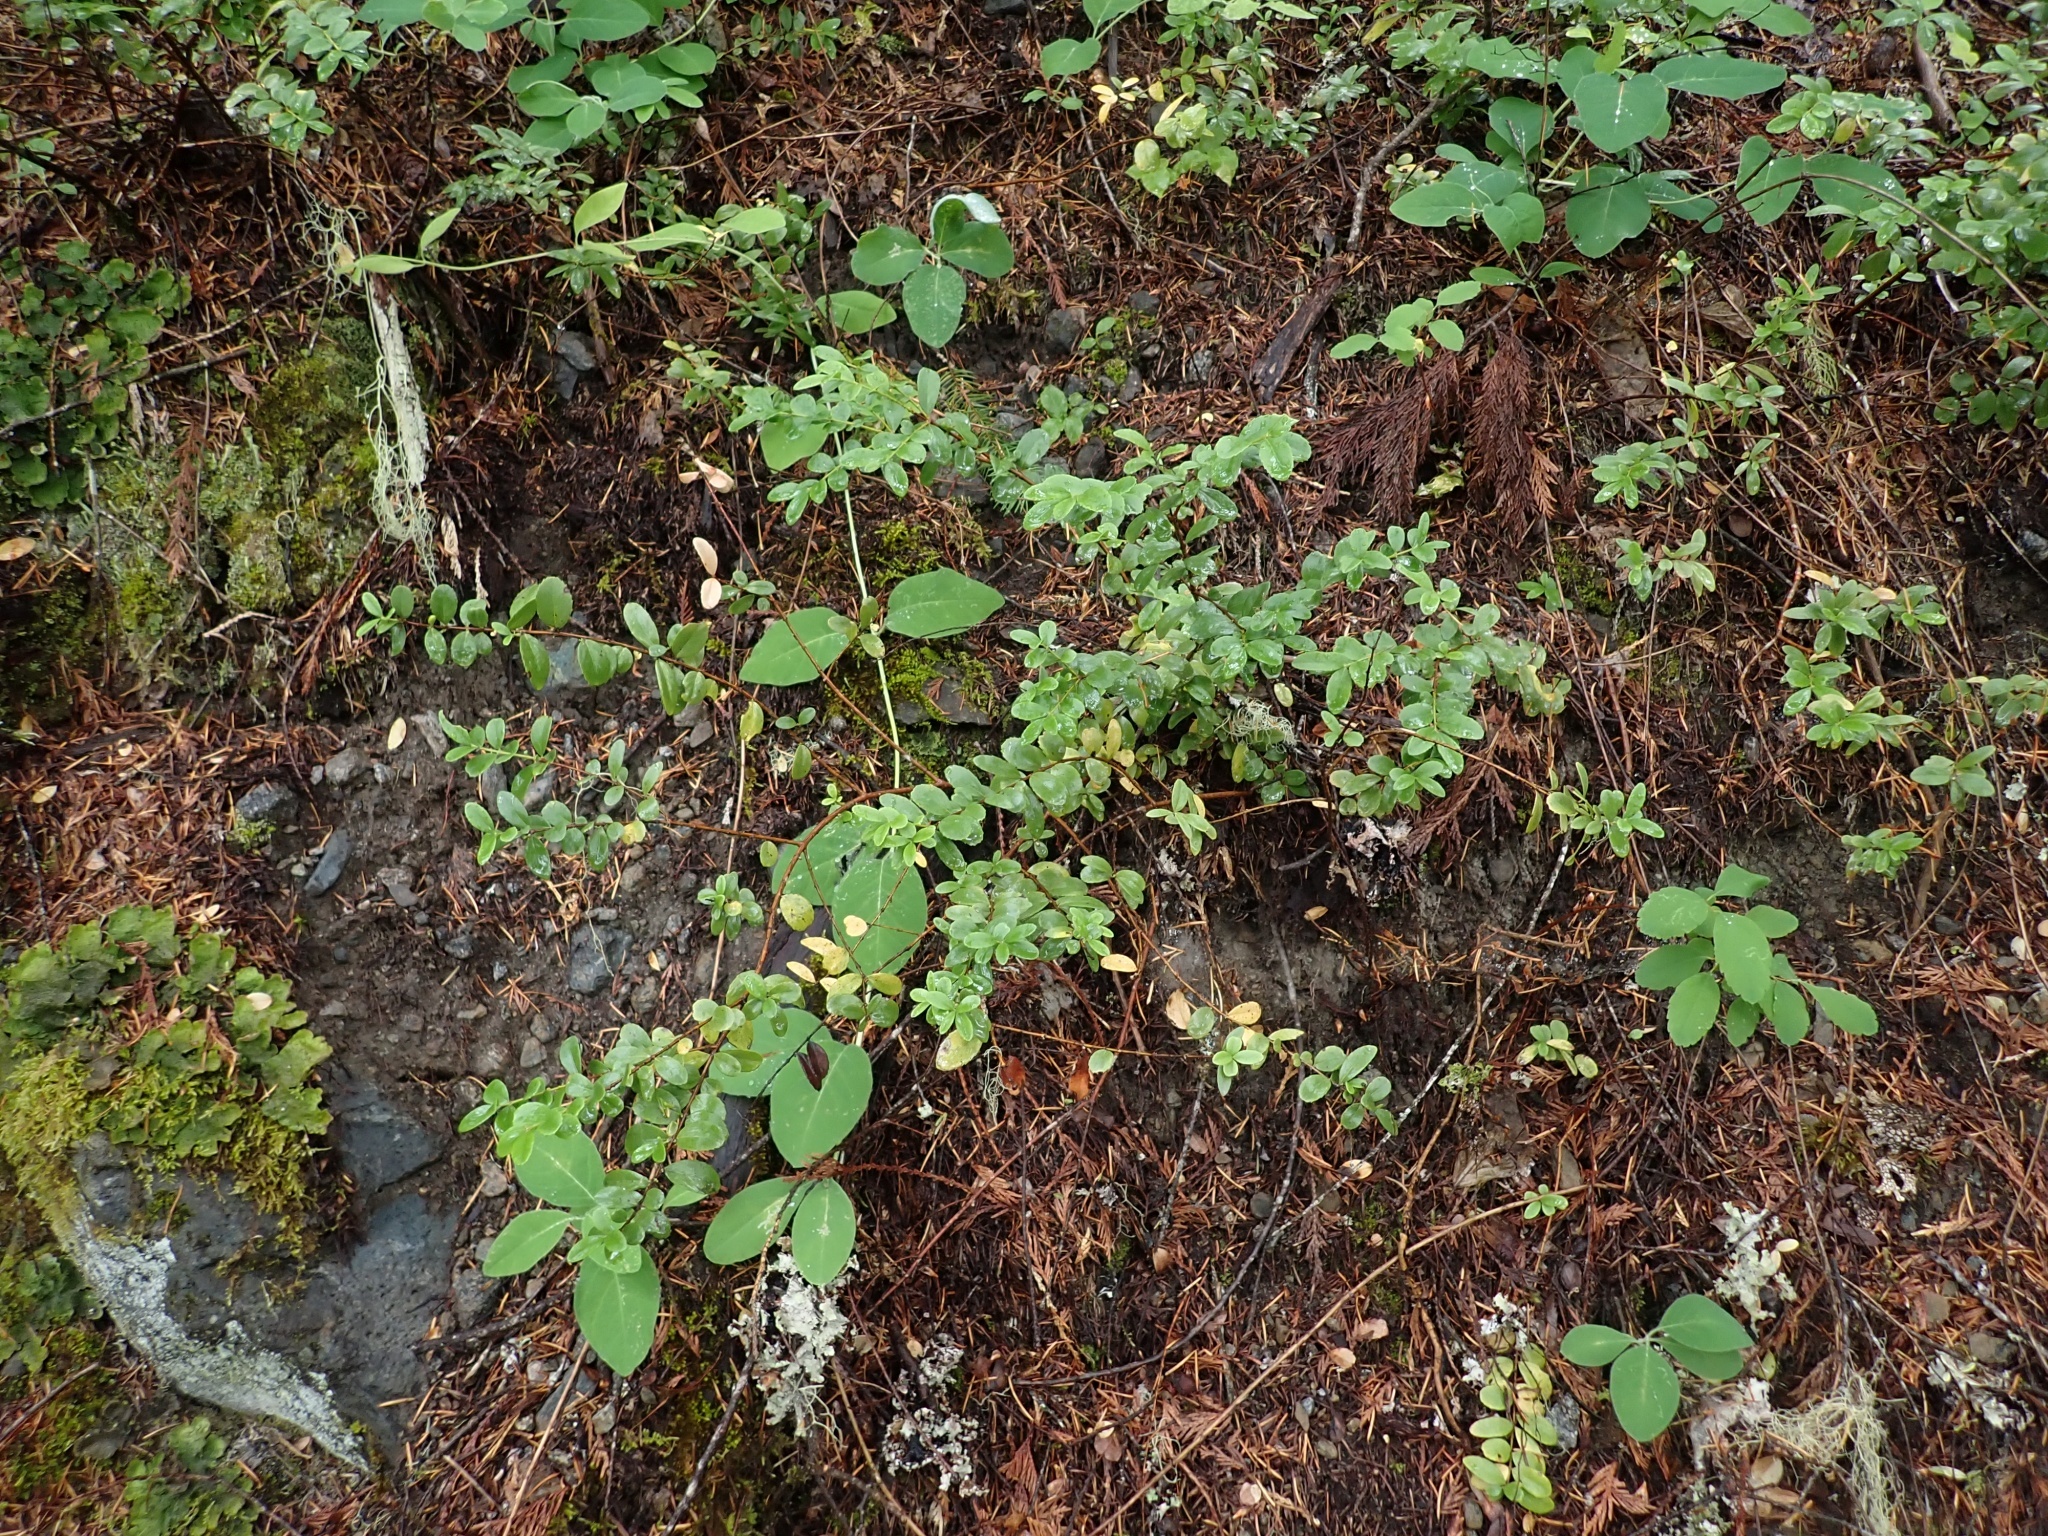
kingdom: Plantae
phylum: Tracheophyta
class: Magnoliopsida
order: Celastrales
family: Celastraceae
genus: Paxistima
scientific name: Paxistima myrsinites
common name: Mountain-lover
